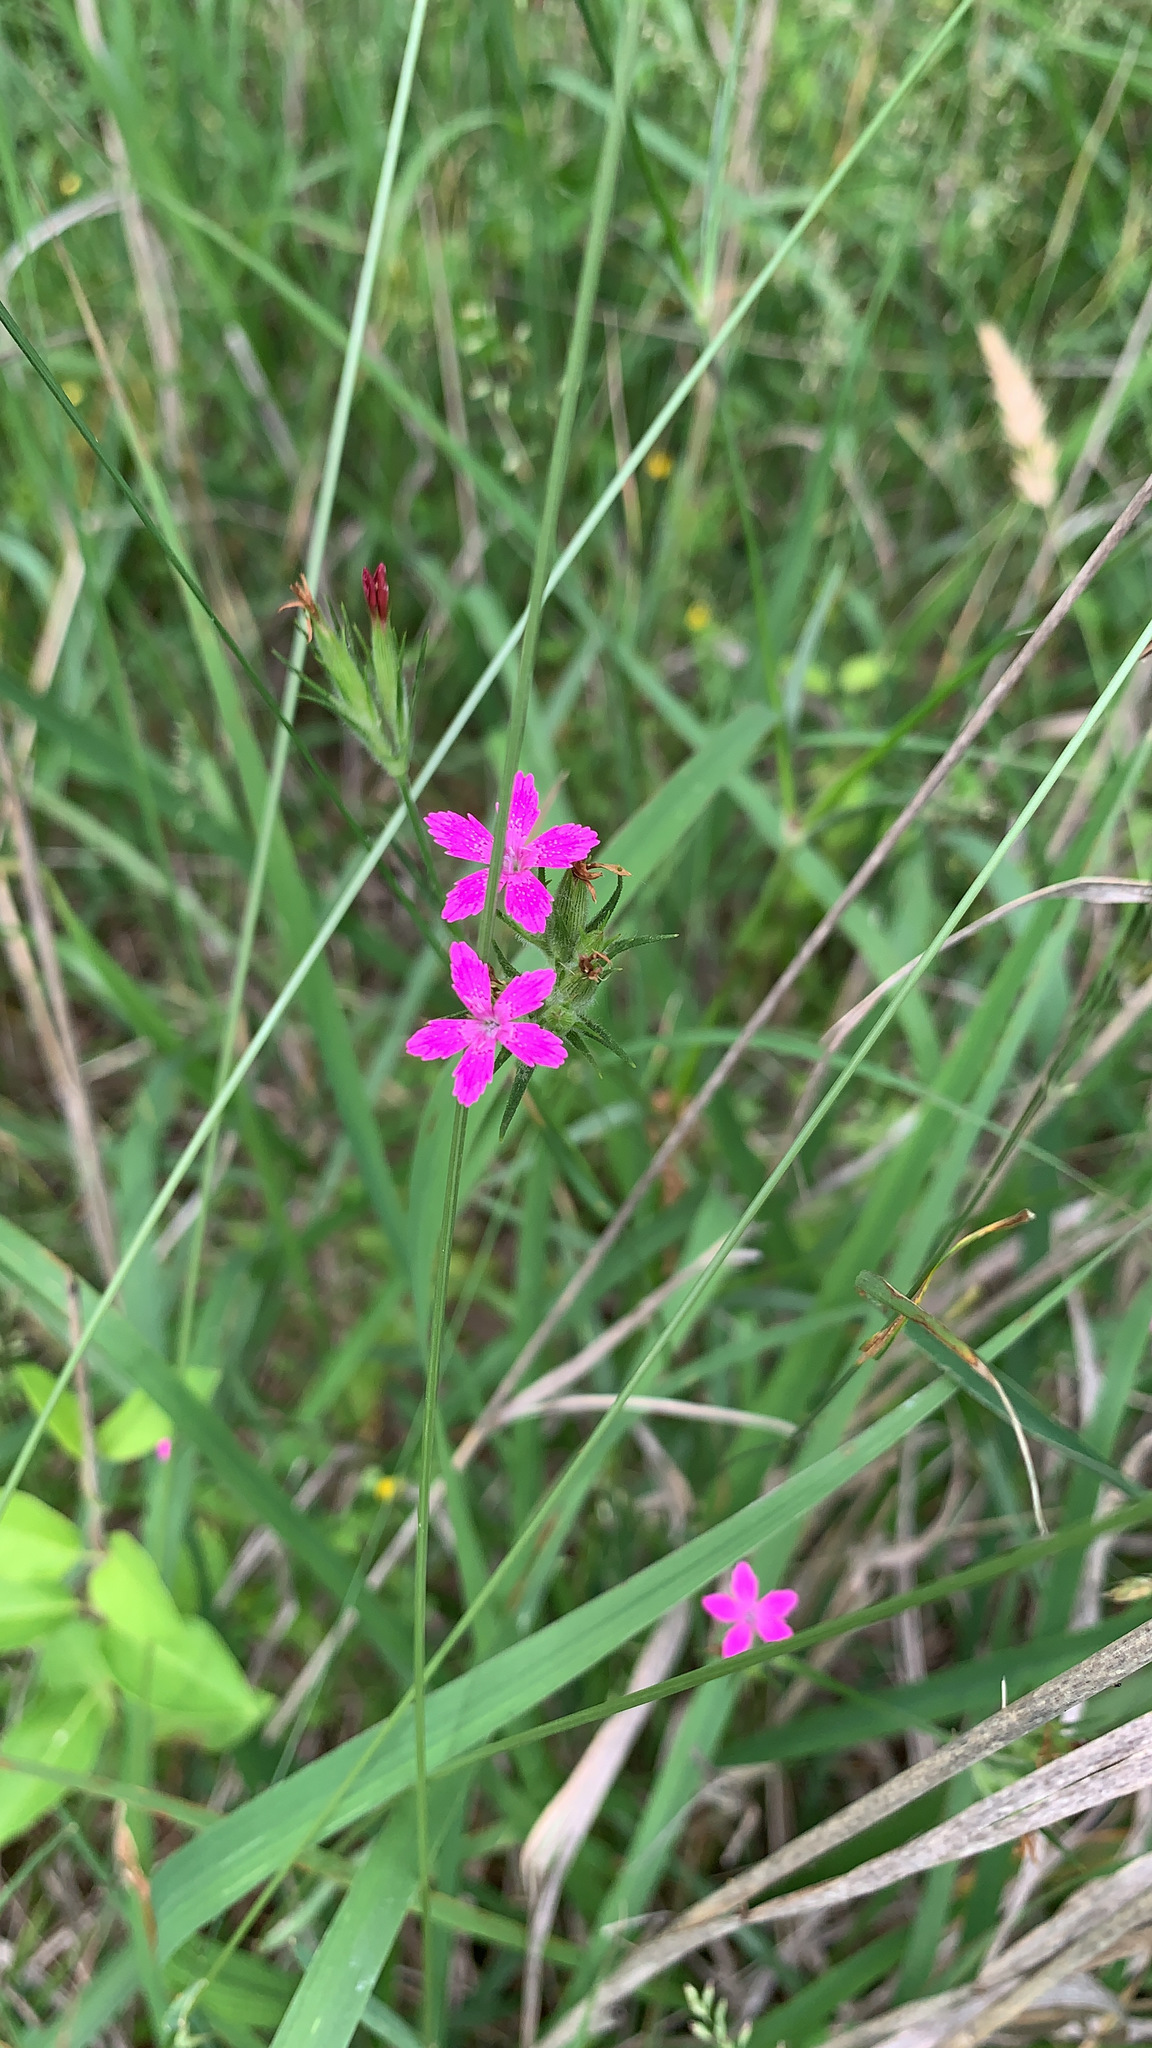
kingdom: Plantae
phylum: Tracheophyta
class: Magnoliopsida
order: Caryophyllales
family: Caryophyllaceae
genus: Dianthus
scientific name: Dianthus armeria
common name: Deptford pink
